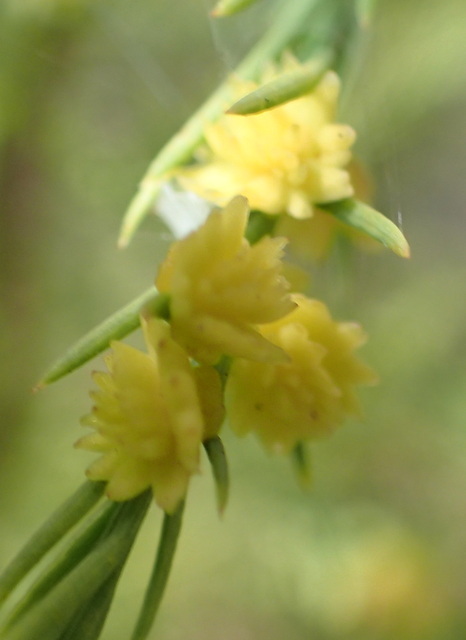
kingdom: Animalia
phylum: Arthropoda
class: Insecta
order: Diptera
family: Cecidomyiidae
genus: Taxodiomyia
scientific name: Taxodiomyia
